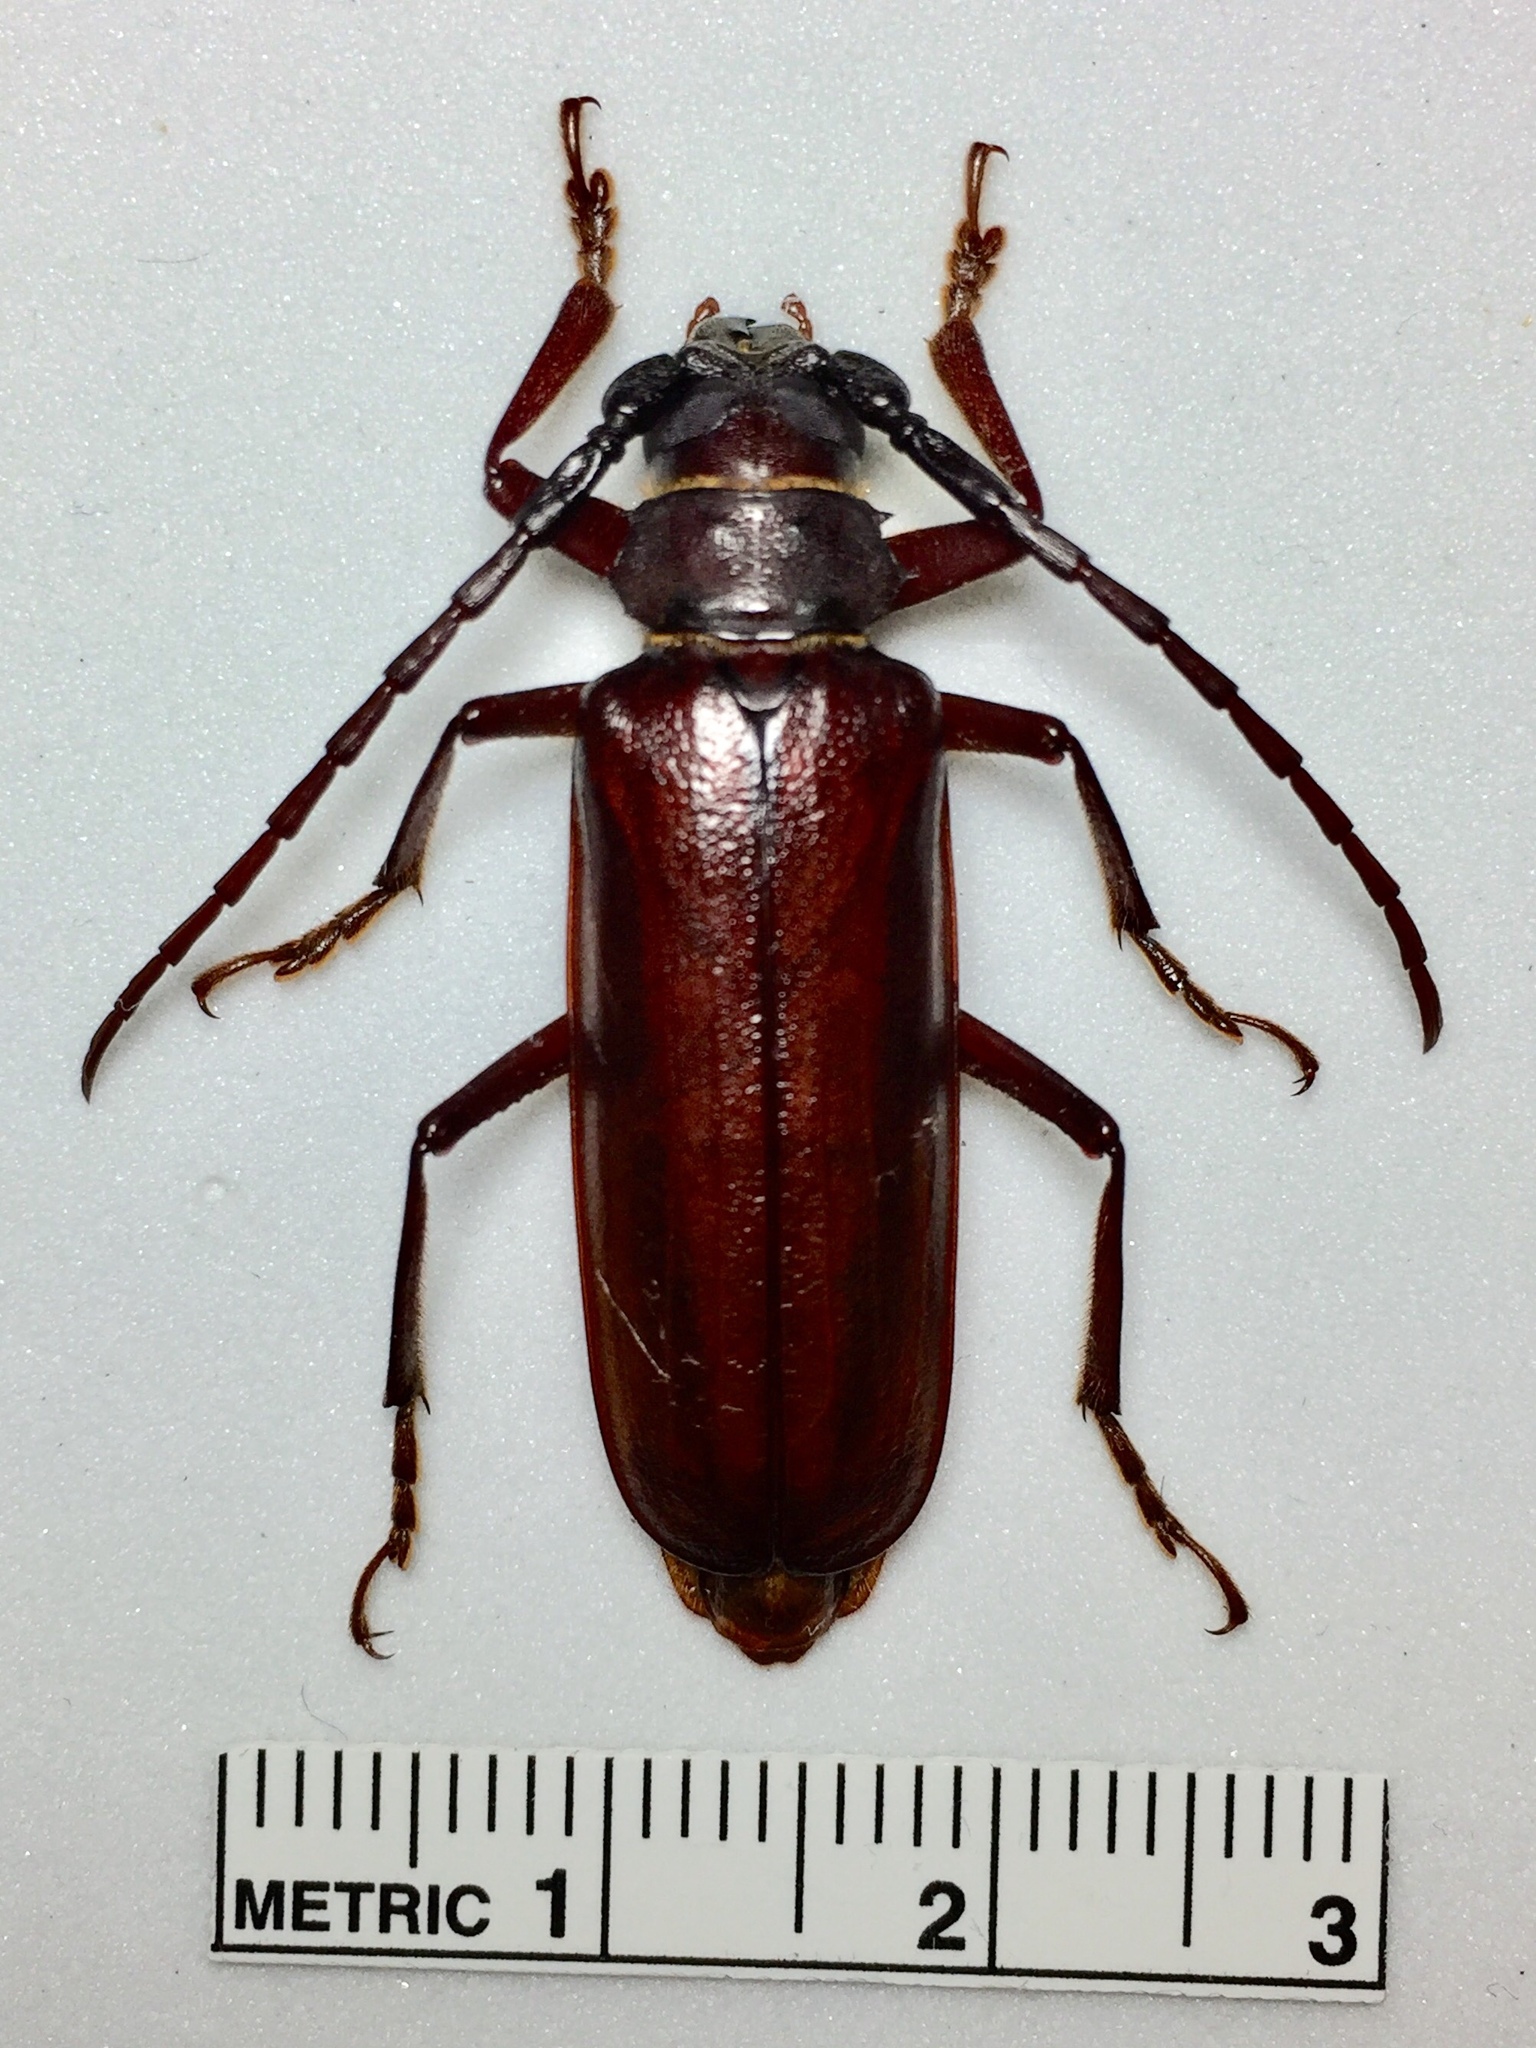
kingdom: Animalia
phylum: Arthropoda
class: Insecta
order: Coleoptera
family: Cerambycidae
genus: Orthosoma
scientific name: Orthosoma brunneum
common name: Brown prionid beetle
